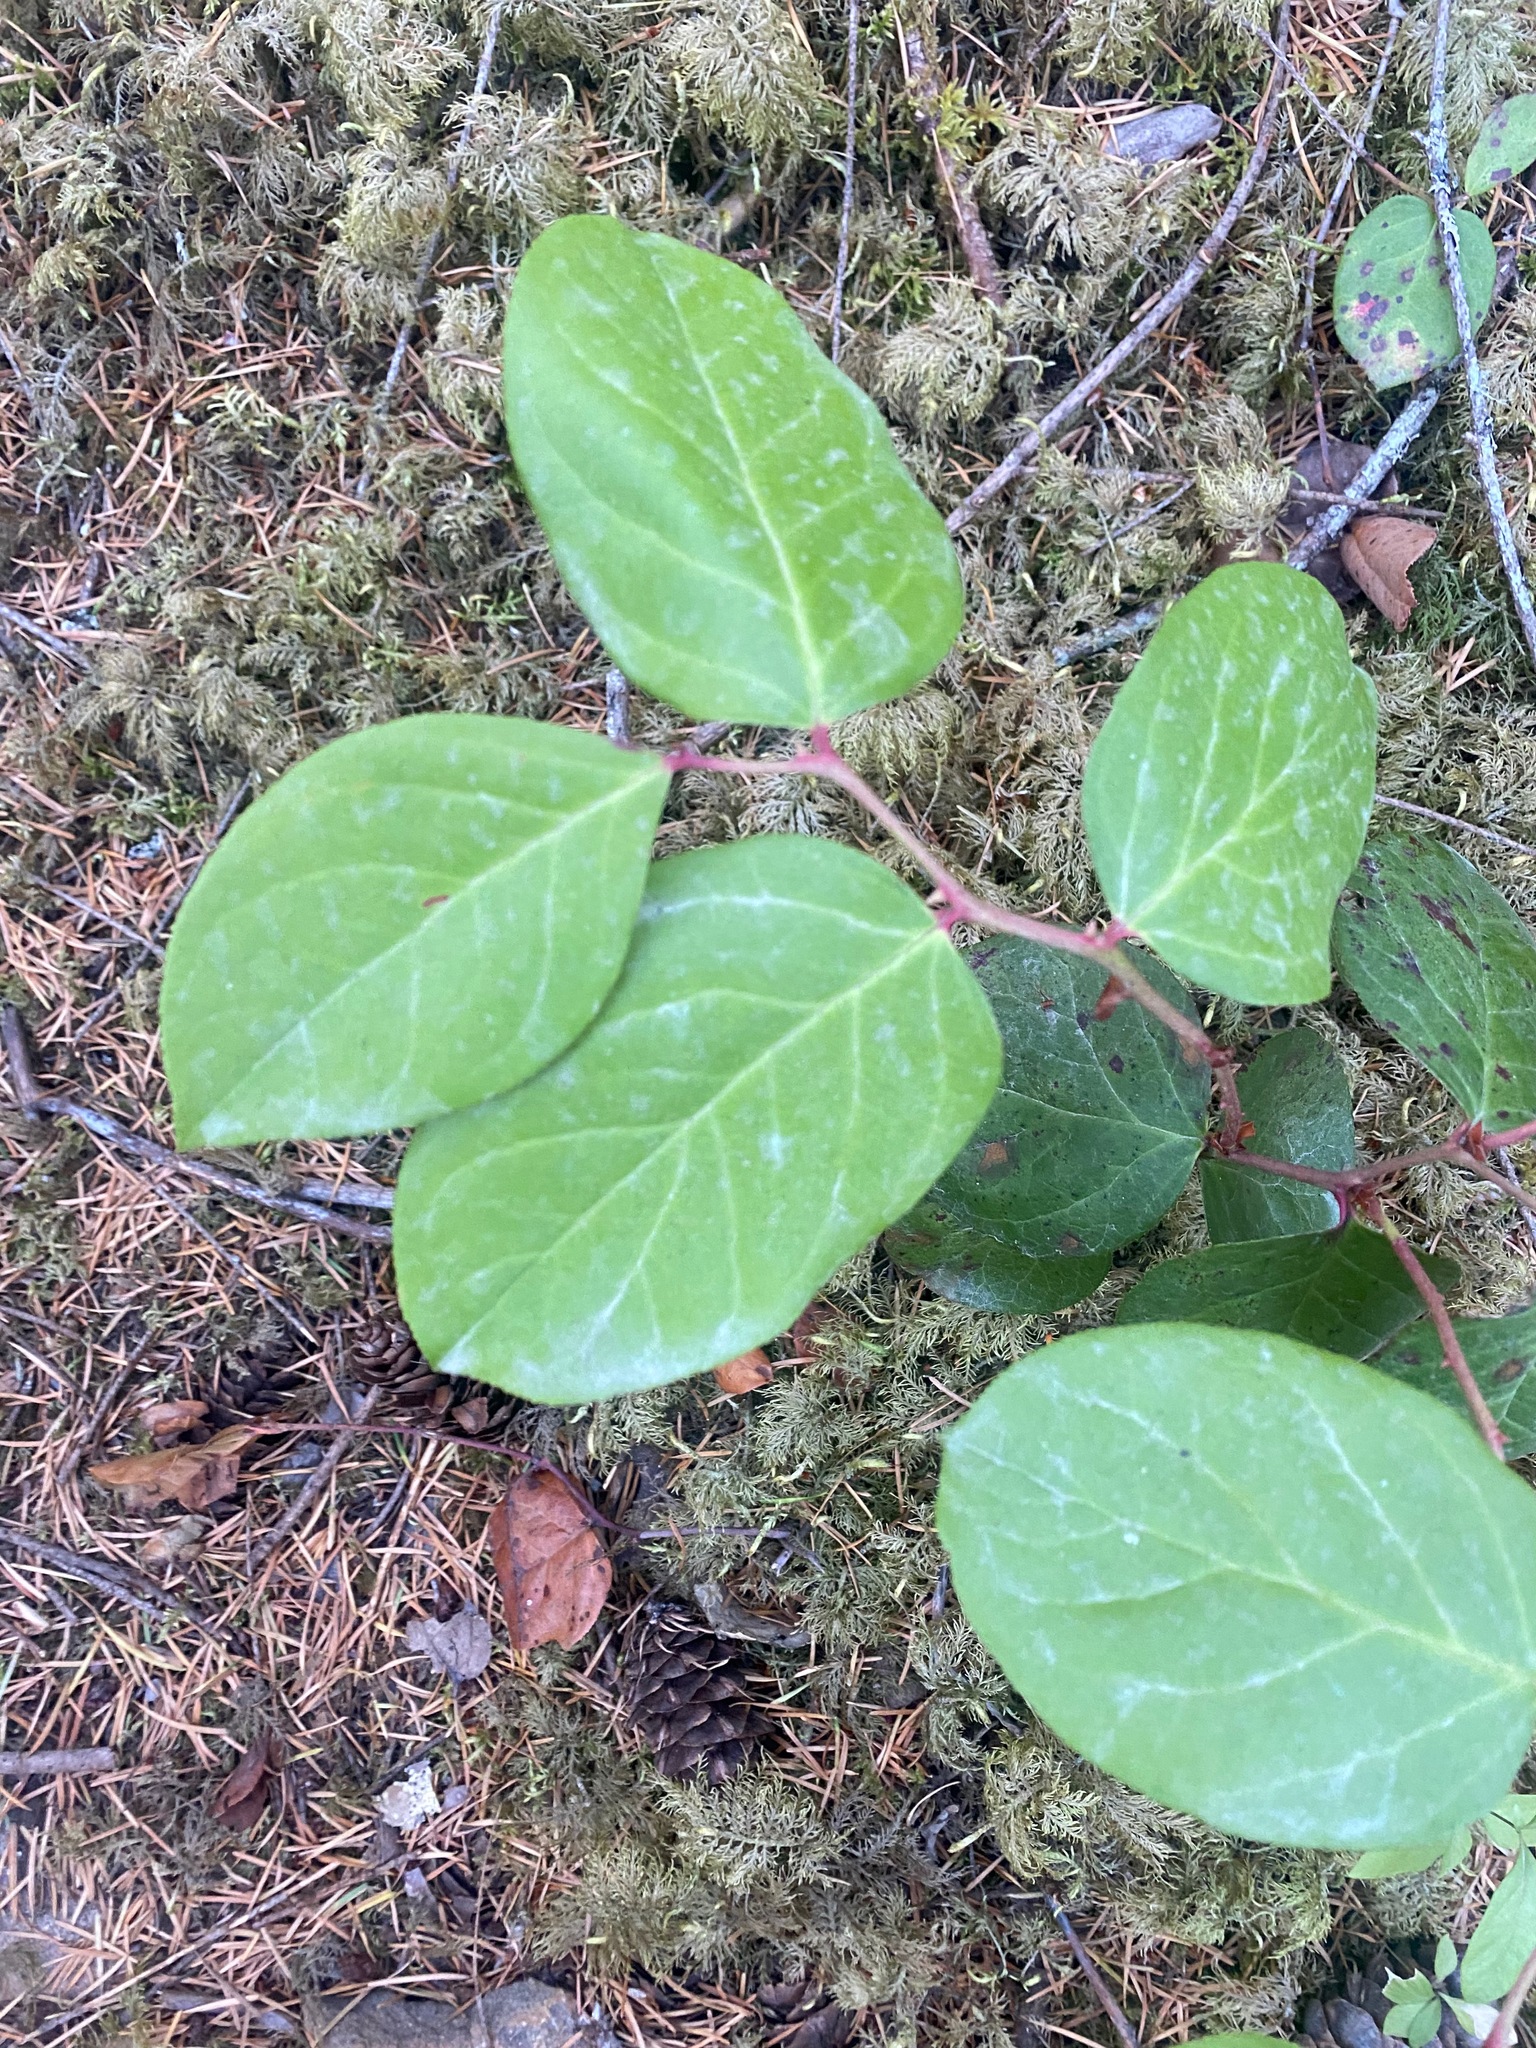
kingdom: Plantae
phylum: Tracheophyta
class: Magnoliopsida
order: Ericales
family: Ericaceae
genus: Gaultheria
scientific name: Gaultheria shallon
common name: Shallon
